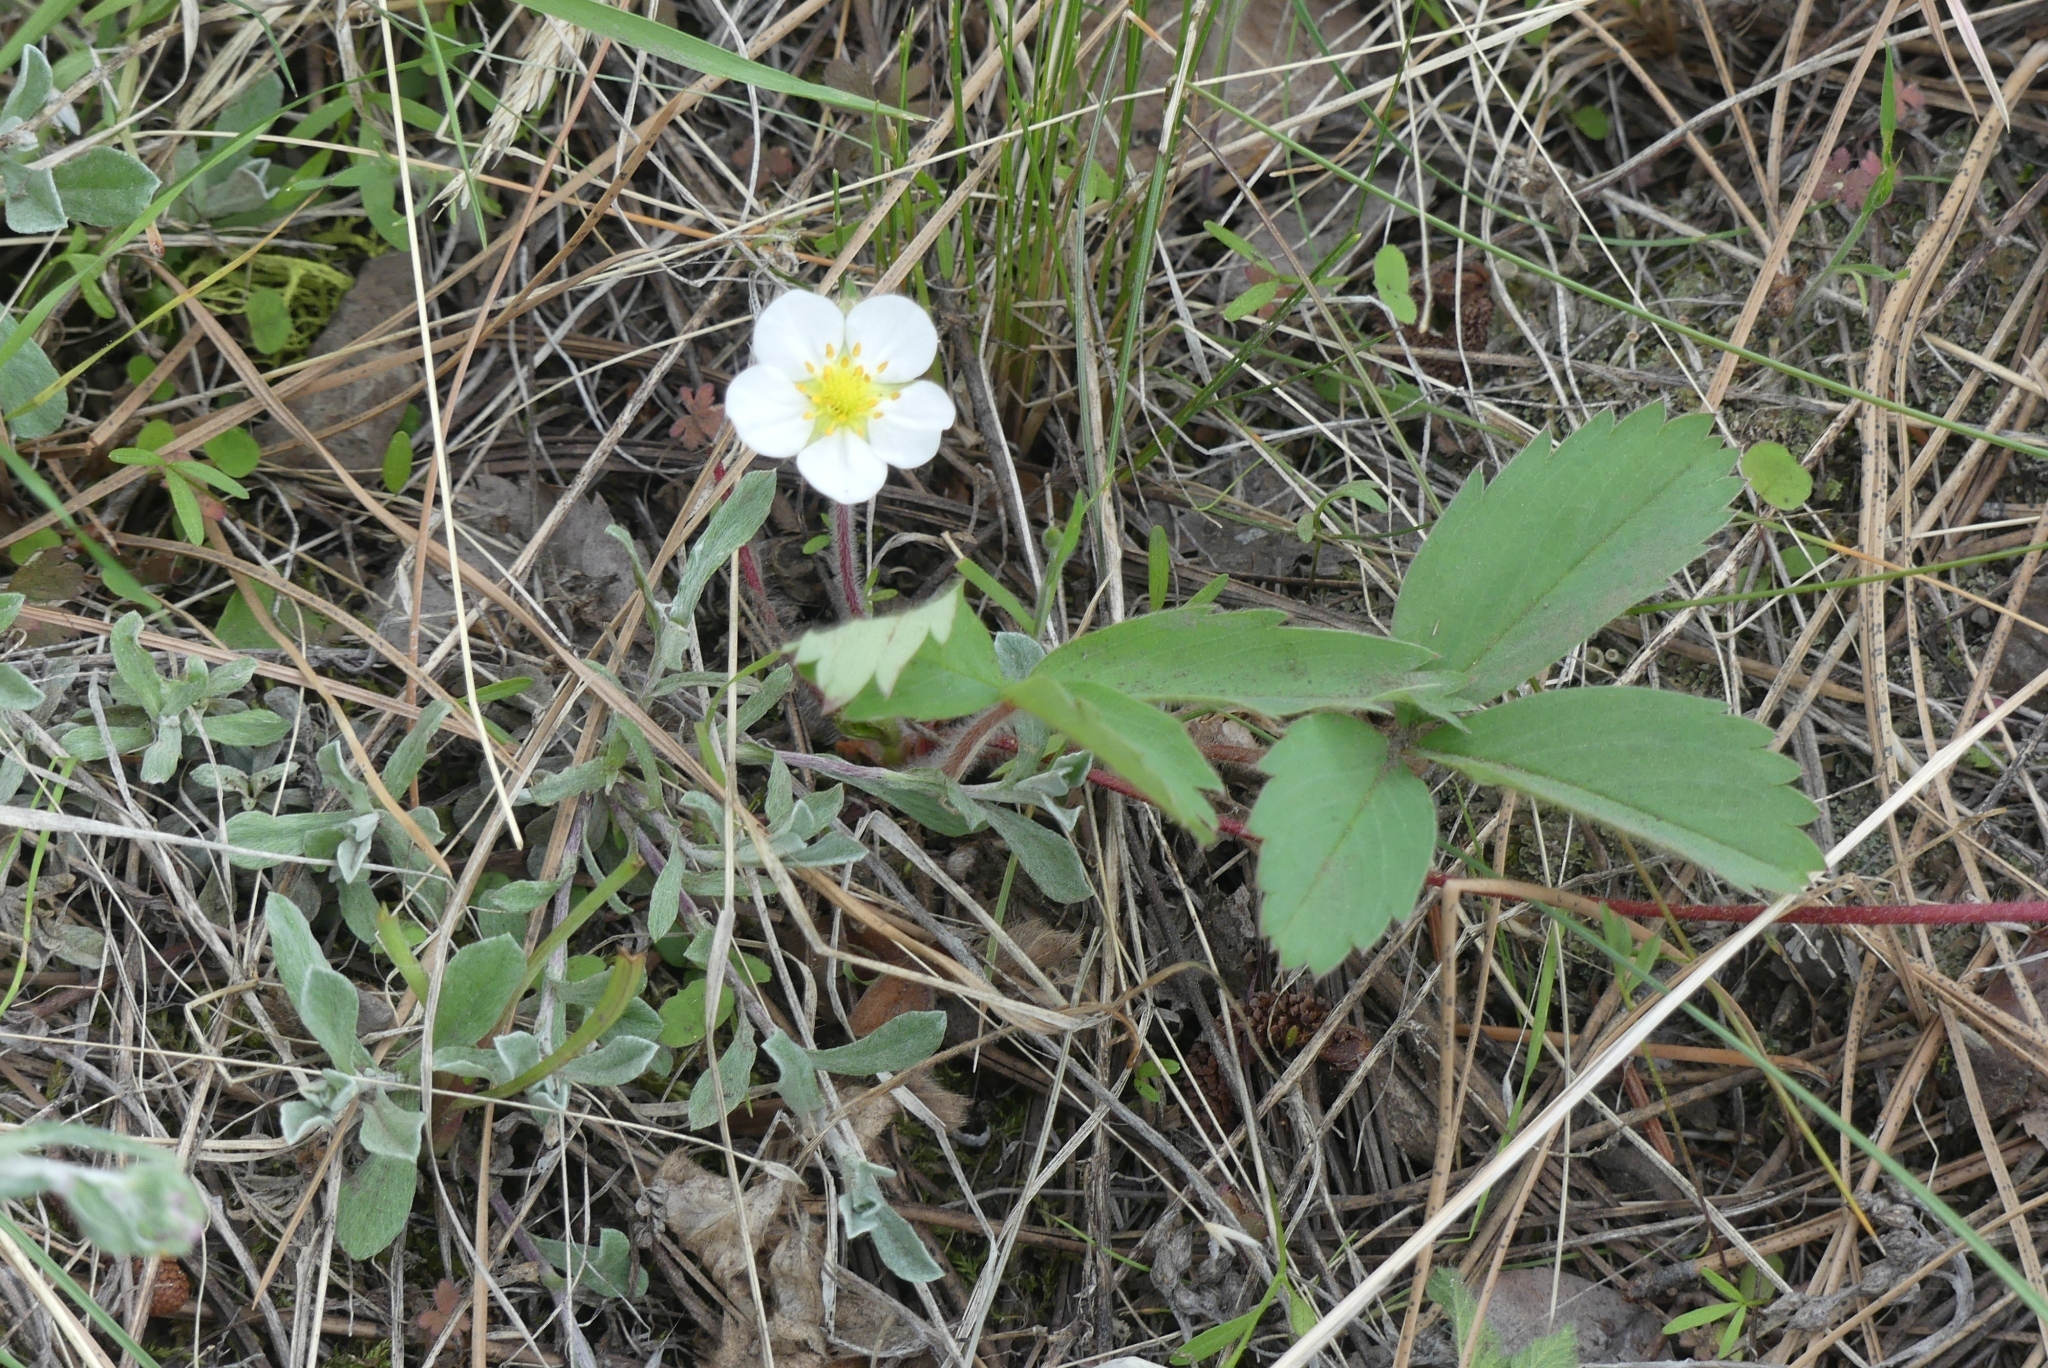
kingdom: Plantae
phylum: Tracheophyta
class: Magnoliopsida
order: Rosales
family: Rosaceae
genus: Fragaria
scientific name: Fragaria virginiana
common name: Thickleaved wild strawberry
